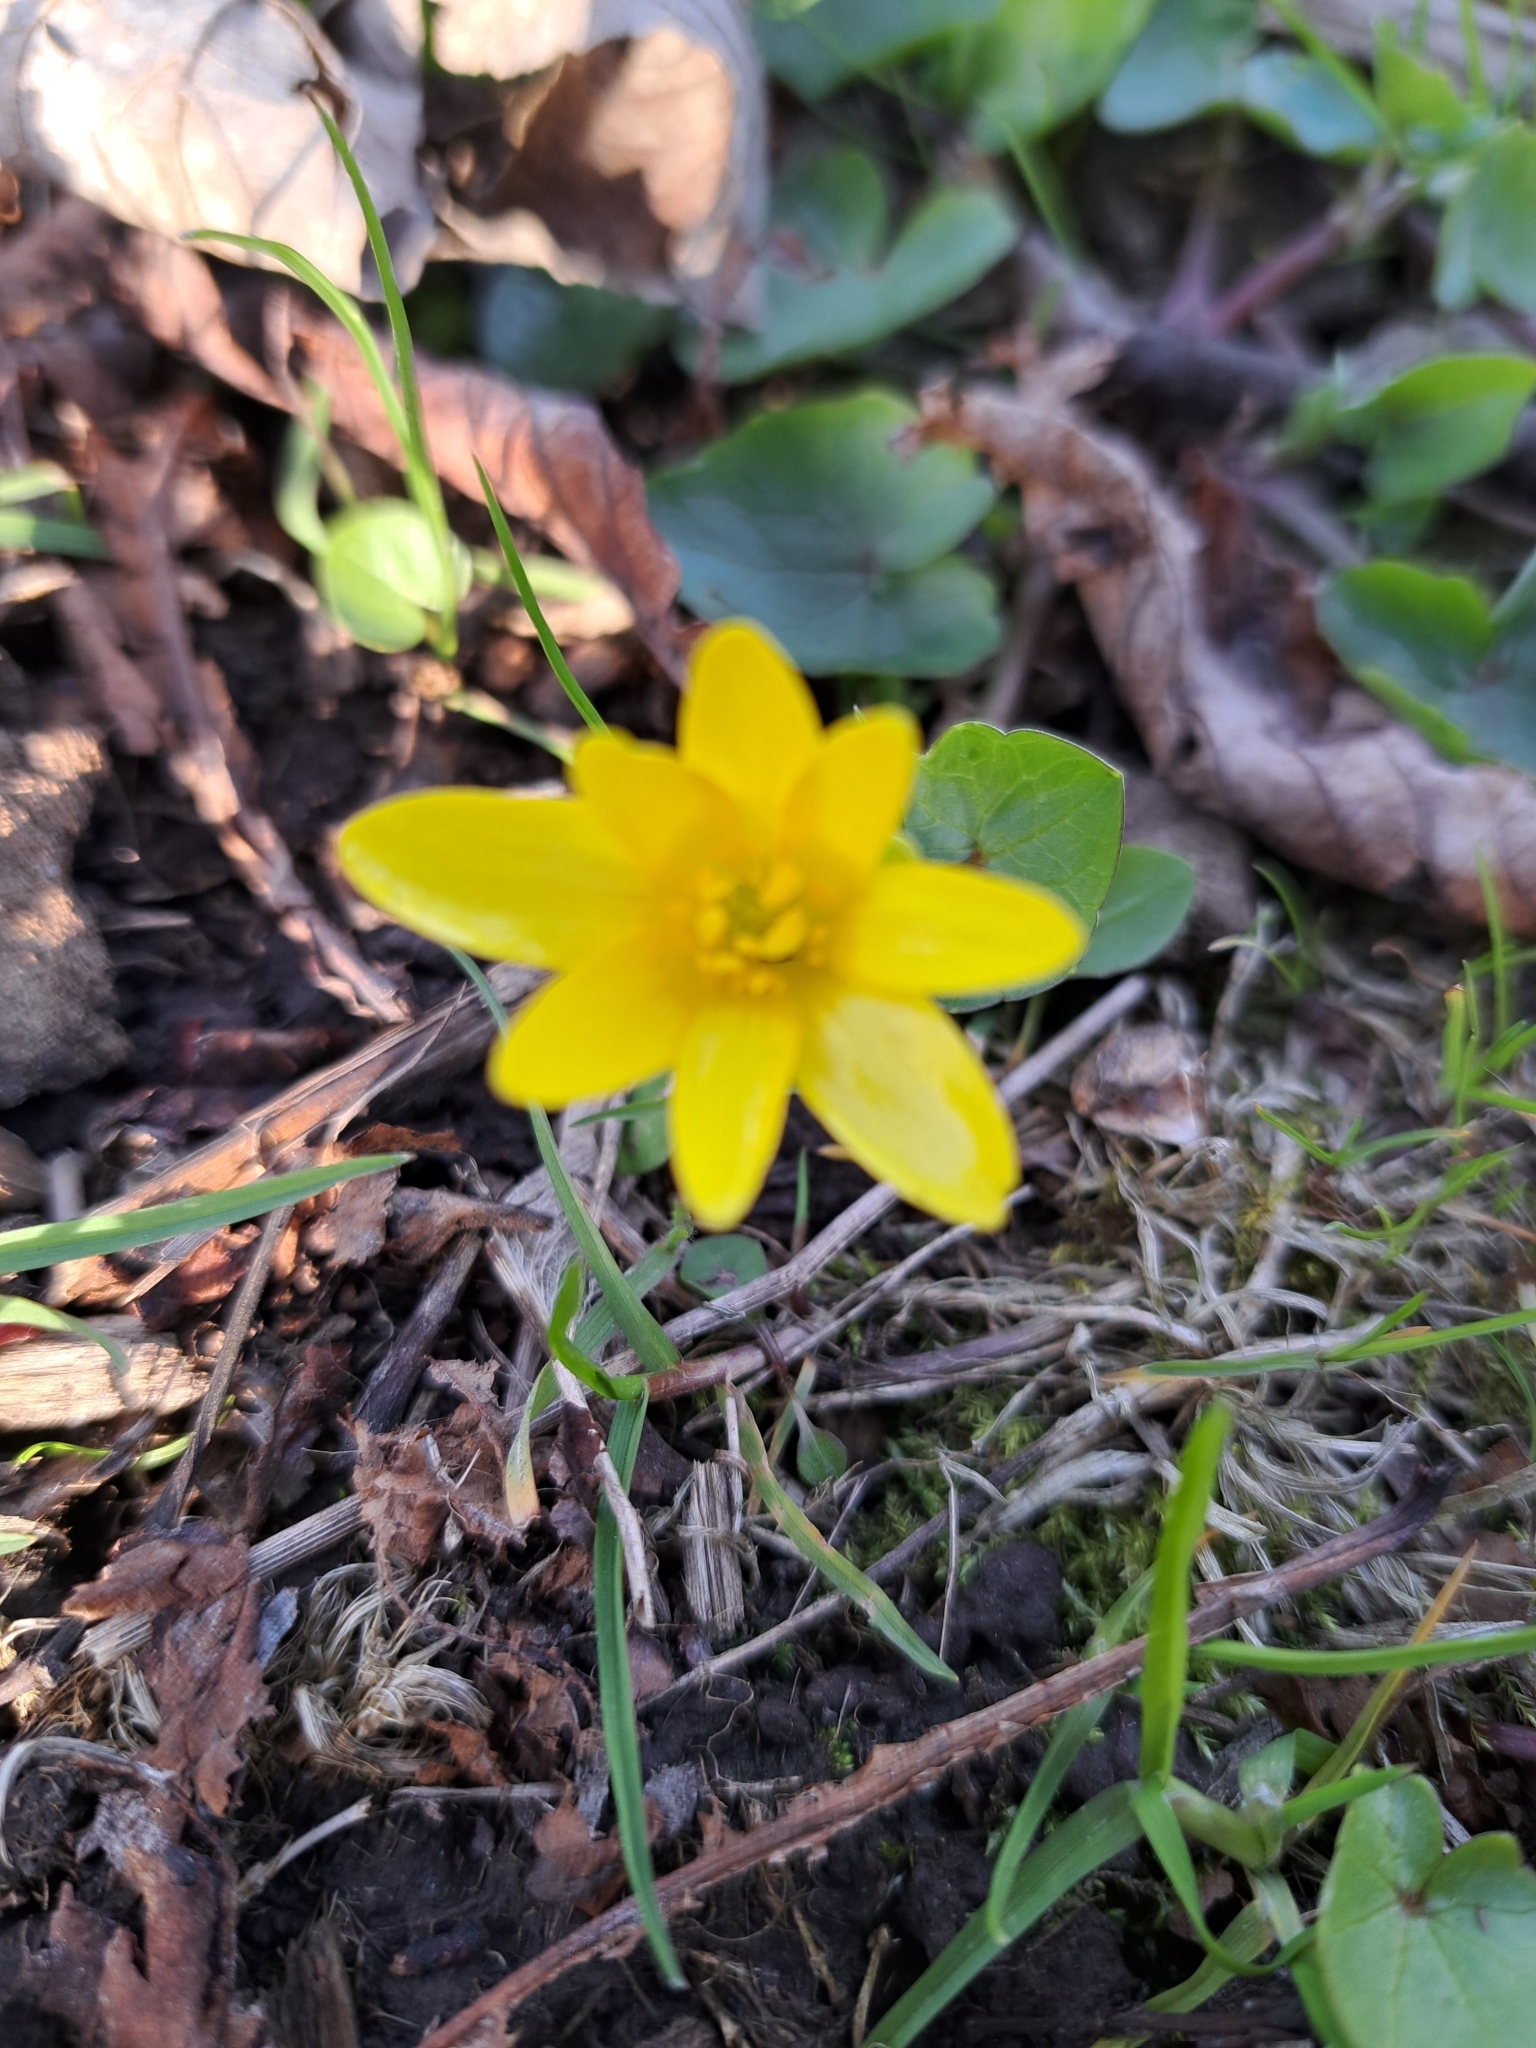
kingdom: Plantae
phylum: Tracheophyta
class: Magnoliopsida
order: Ranunculales
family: Ranunculaceae
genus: Ficaria
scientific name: Ficaria verna
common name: Lesser celandine
